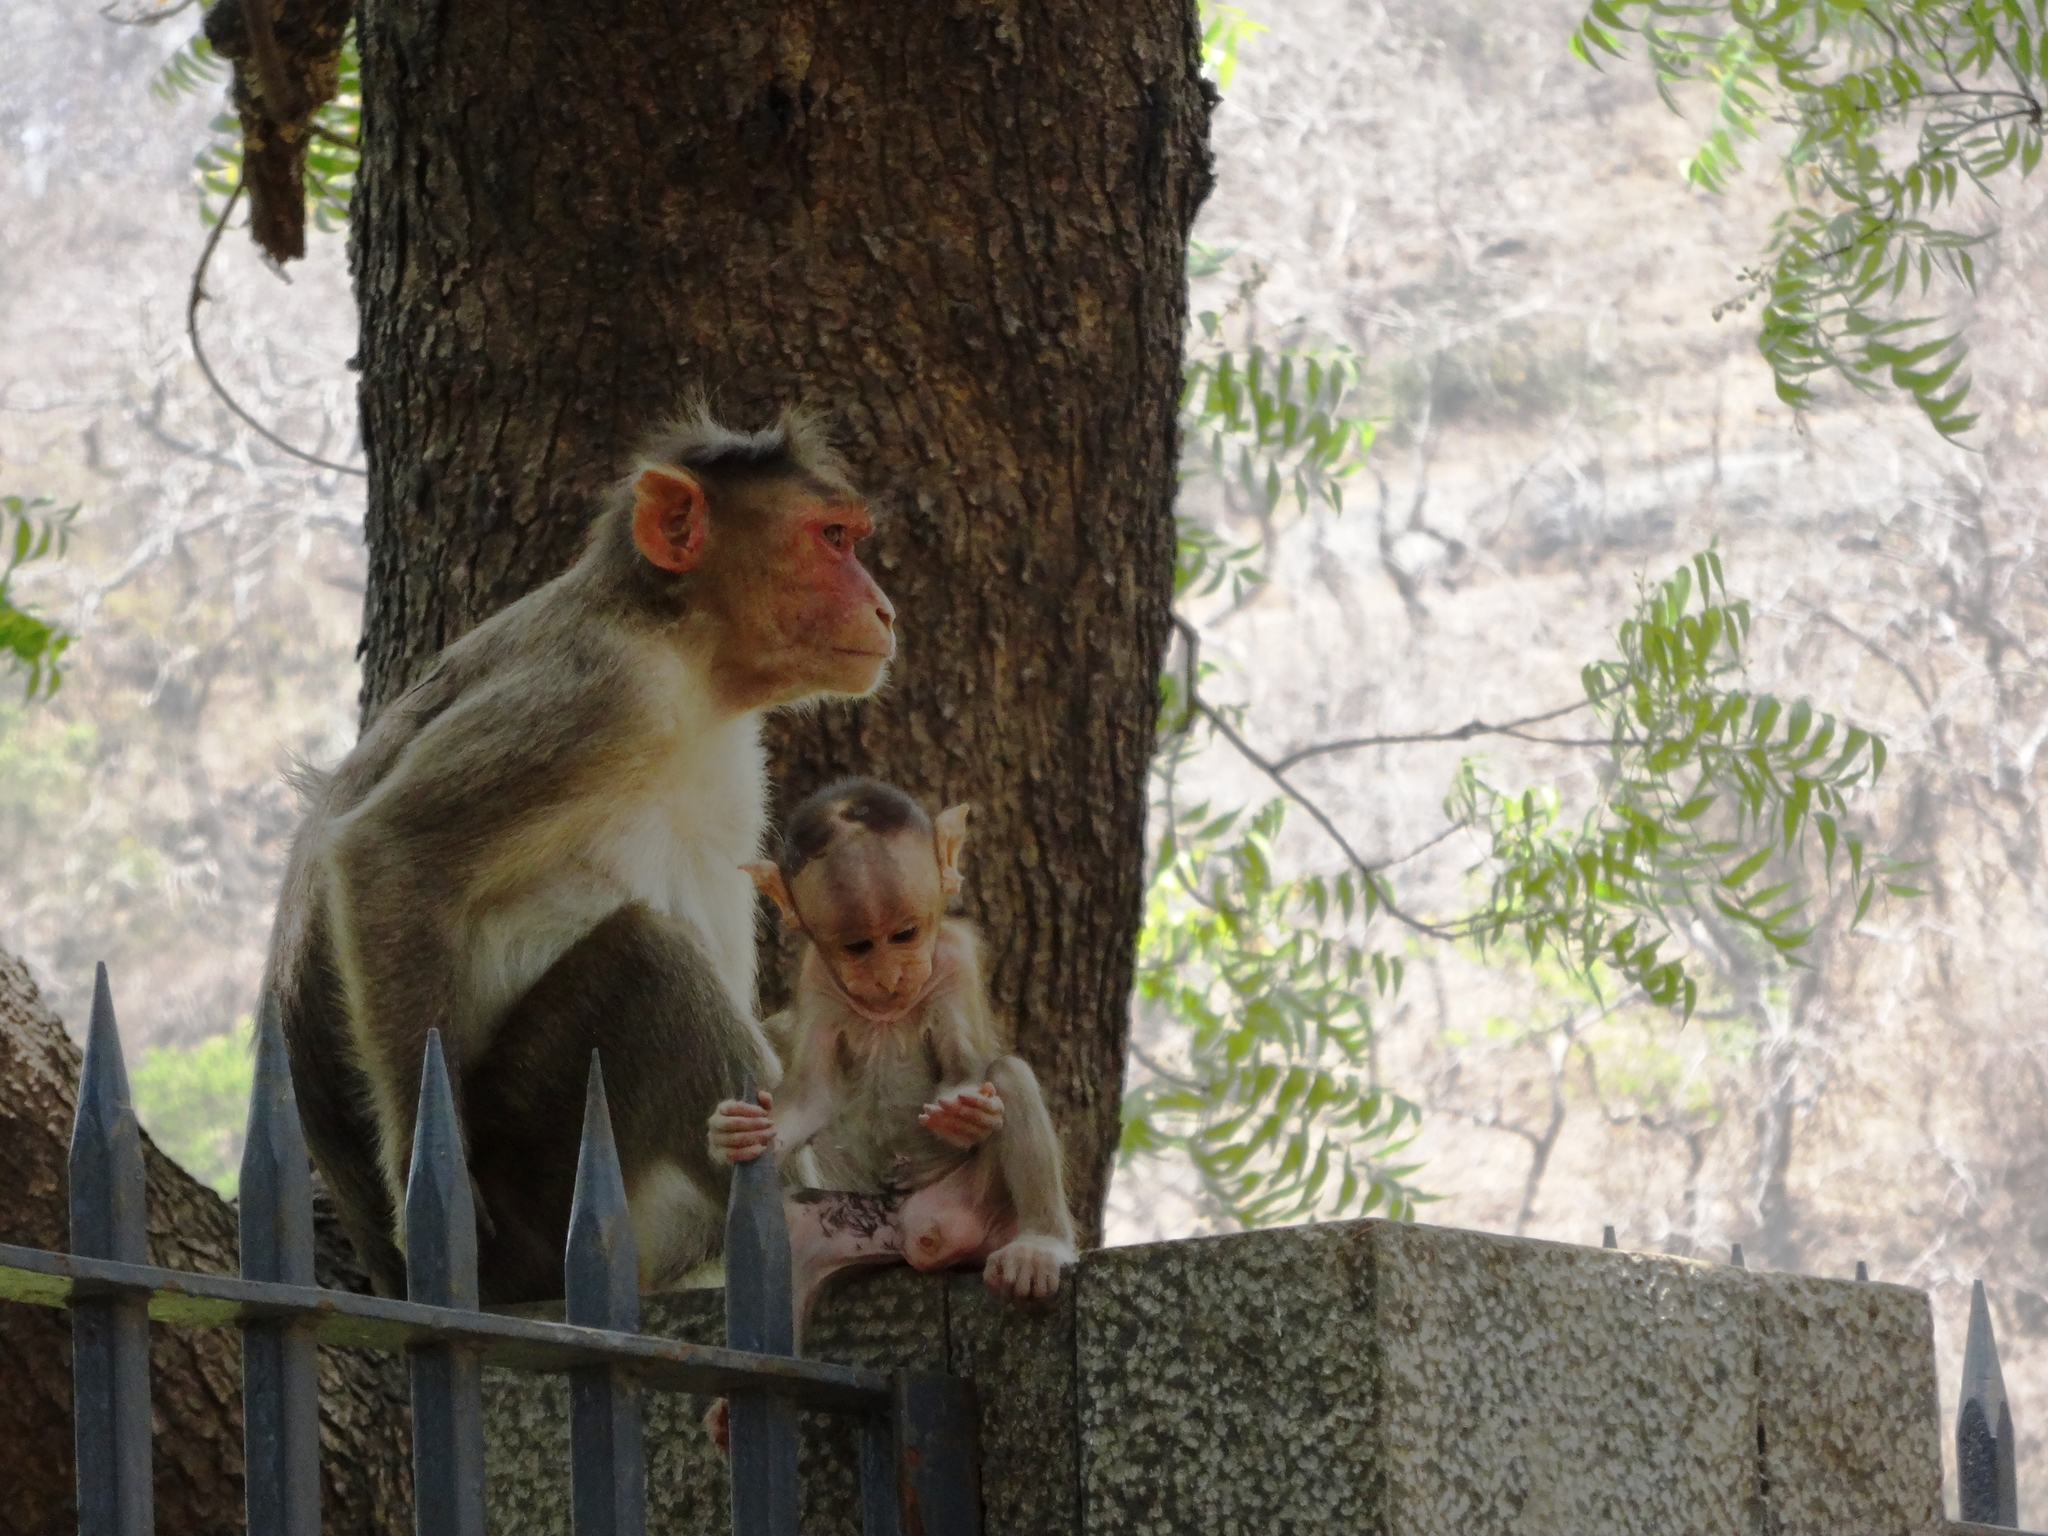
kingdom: Animalia
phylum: Chordata
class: Mammalia
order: Primates
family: Cercopithecidae
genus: Macaca
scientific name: Macaca radiata
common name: Bonnet macaque
